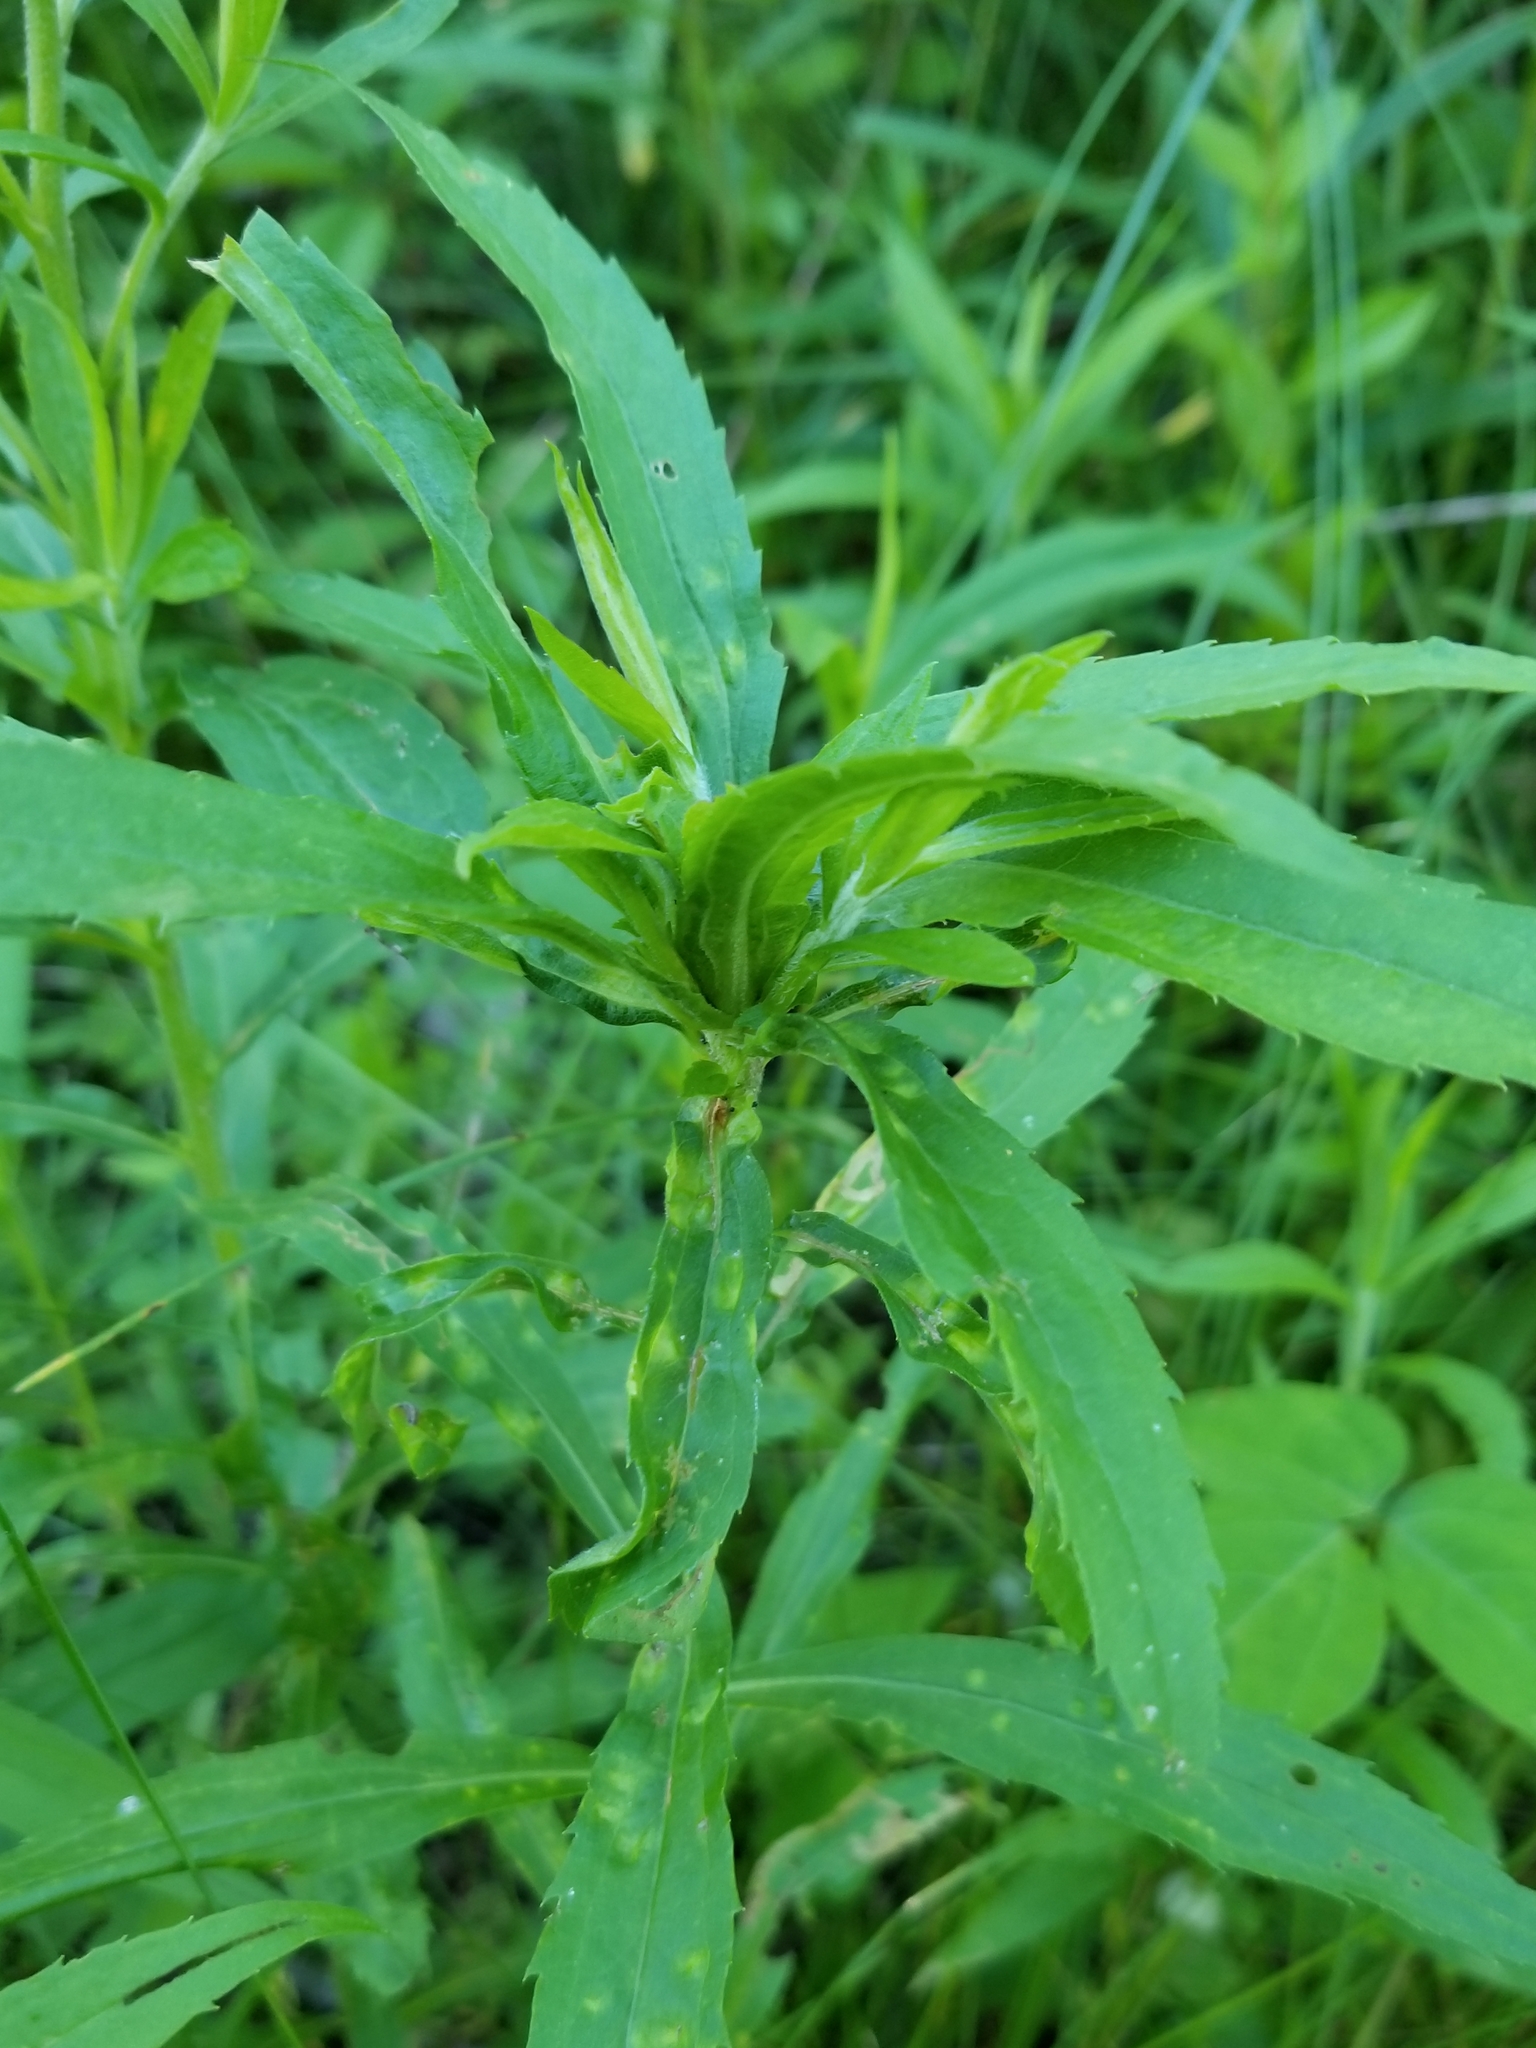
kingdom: Animalia
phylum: Arthropoda
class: Insecta
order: Diptera
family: Cecidomyiidae
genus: Dasineura
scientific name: Dasineura folliculi
